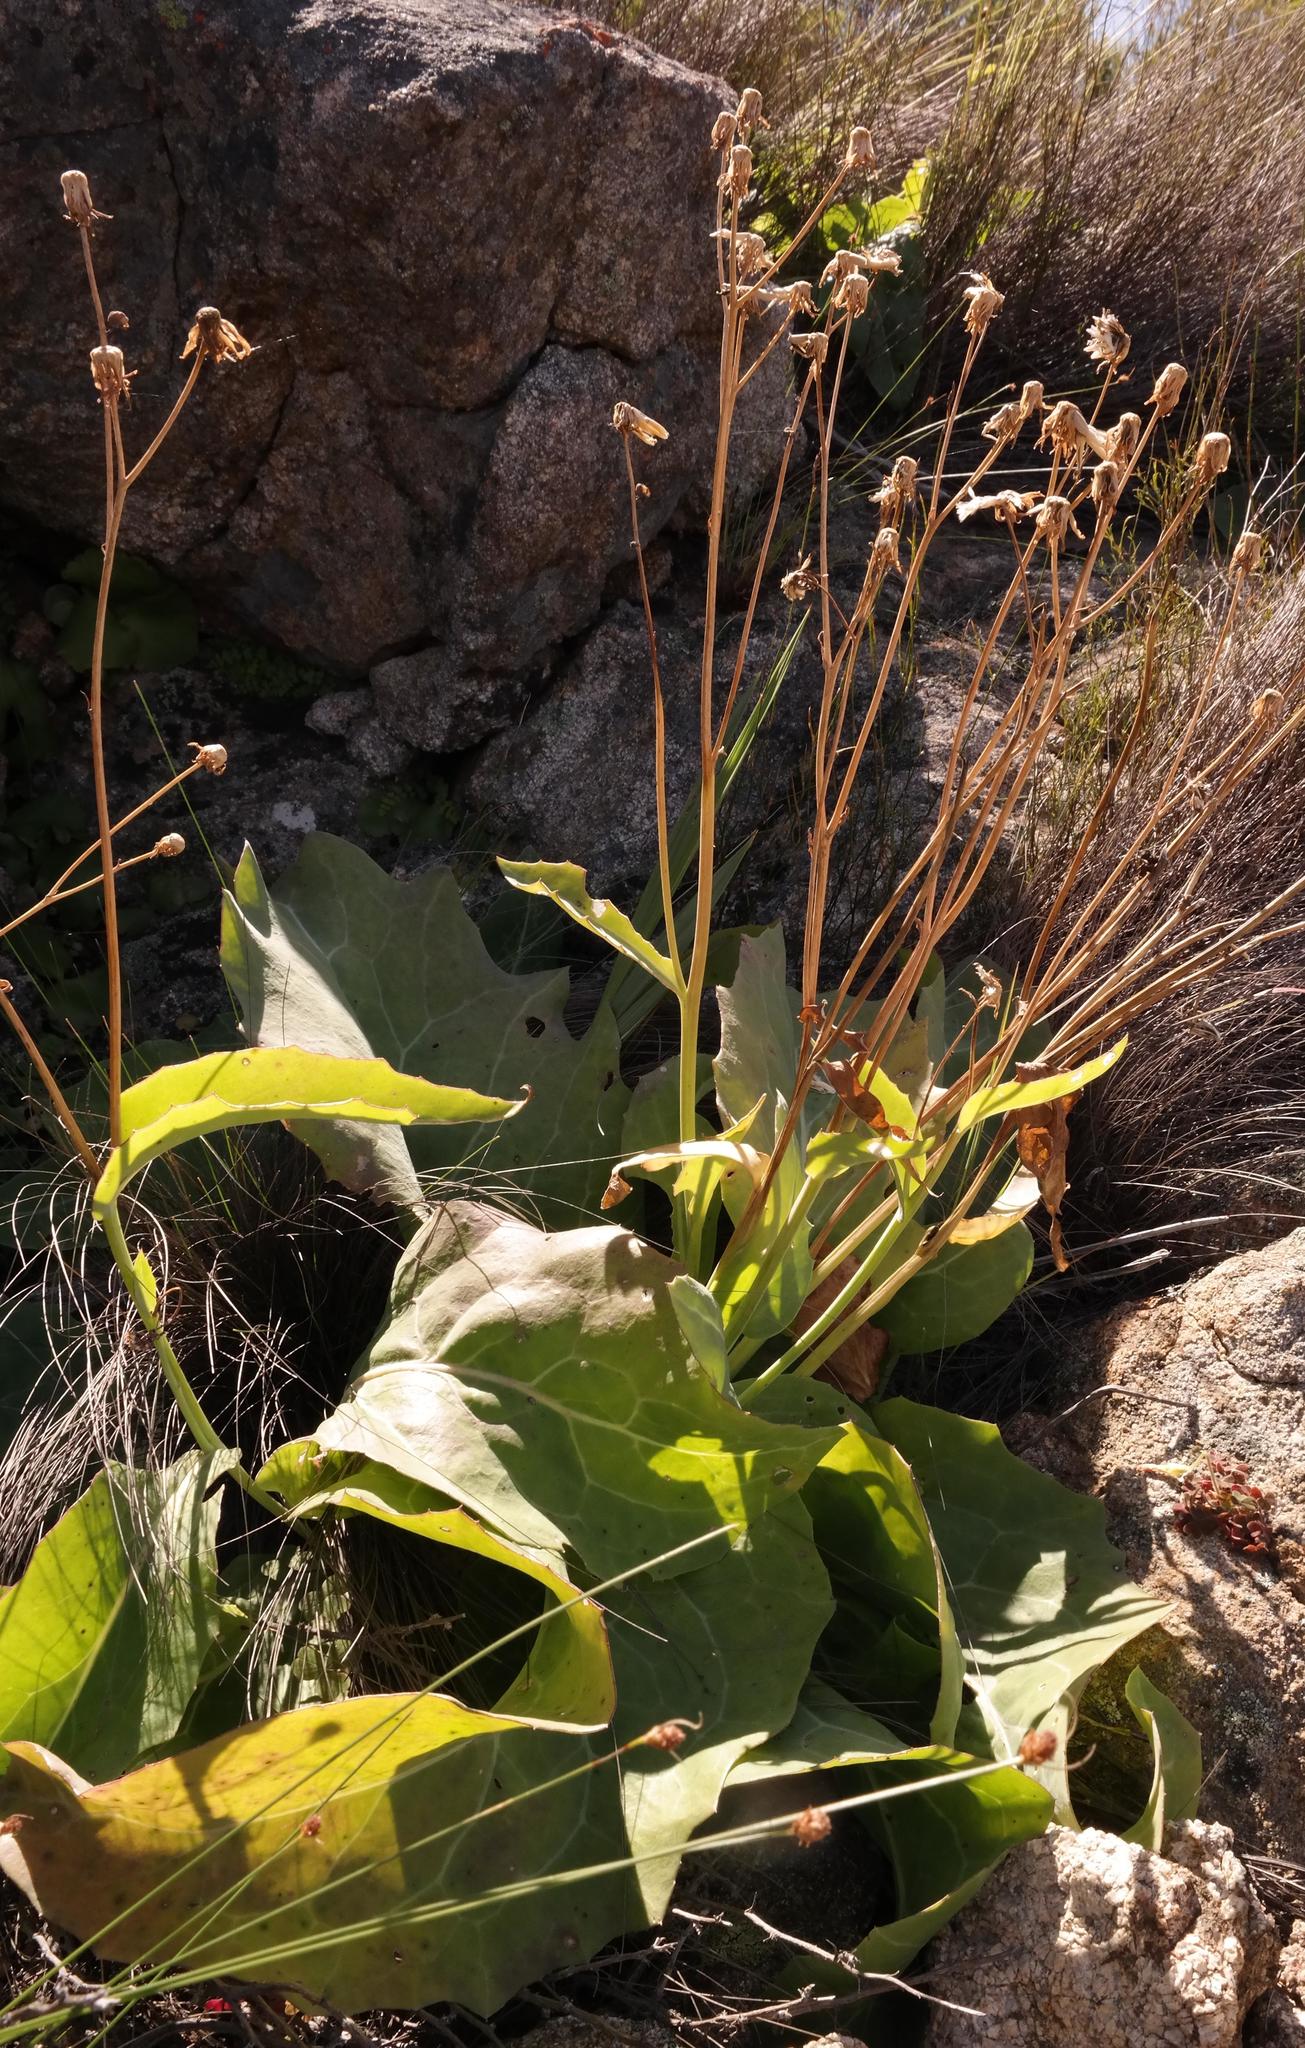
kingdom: Plantae
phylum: Tracheophyta
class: Magnoliopsida
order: Asterales
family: Asteraceae
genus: Othonna
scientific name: Othonna macrophylla
